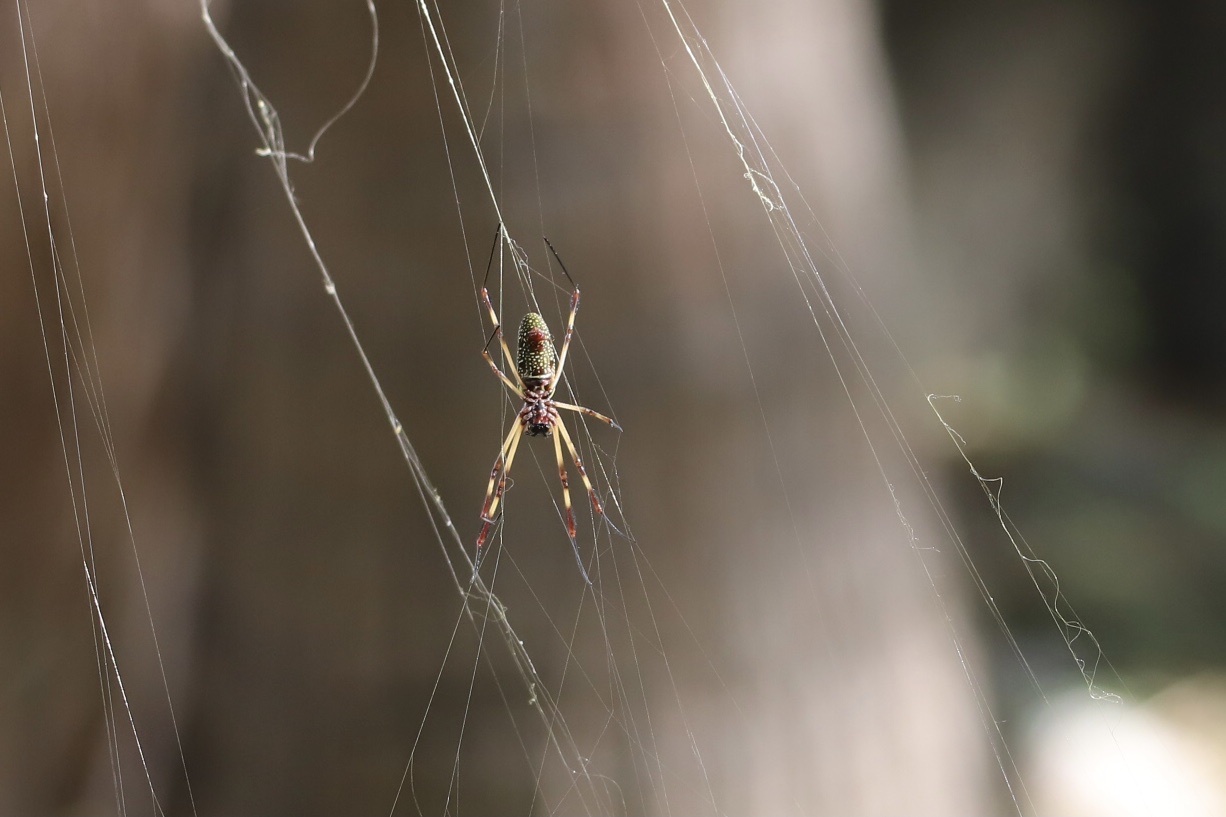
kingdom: Animalia
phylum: Arthropoda
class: Arachnida
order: Araneae
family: Araneidae
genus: Trichonephila
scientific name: Trichonephila clavipes
